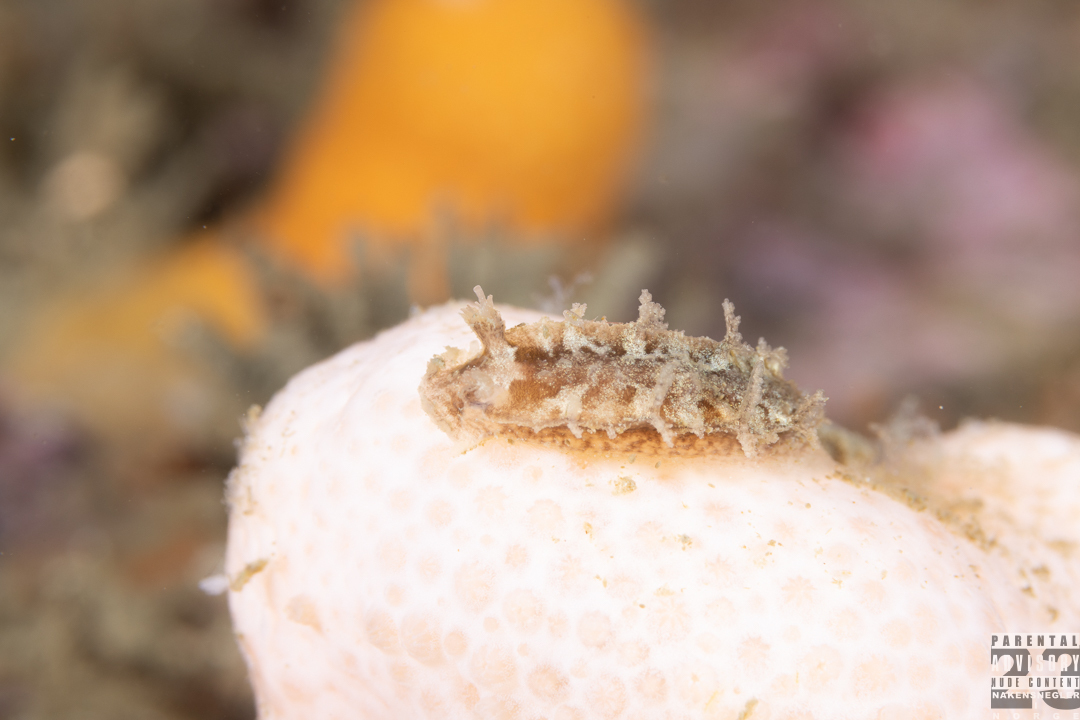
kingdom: Animalia
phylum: Mollusca
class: Gastropoda
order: Nudibranchia
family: Tritoniidae
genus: Duvaucelia
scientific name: Duvaucelia plebeia
